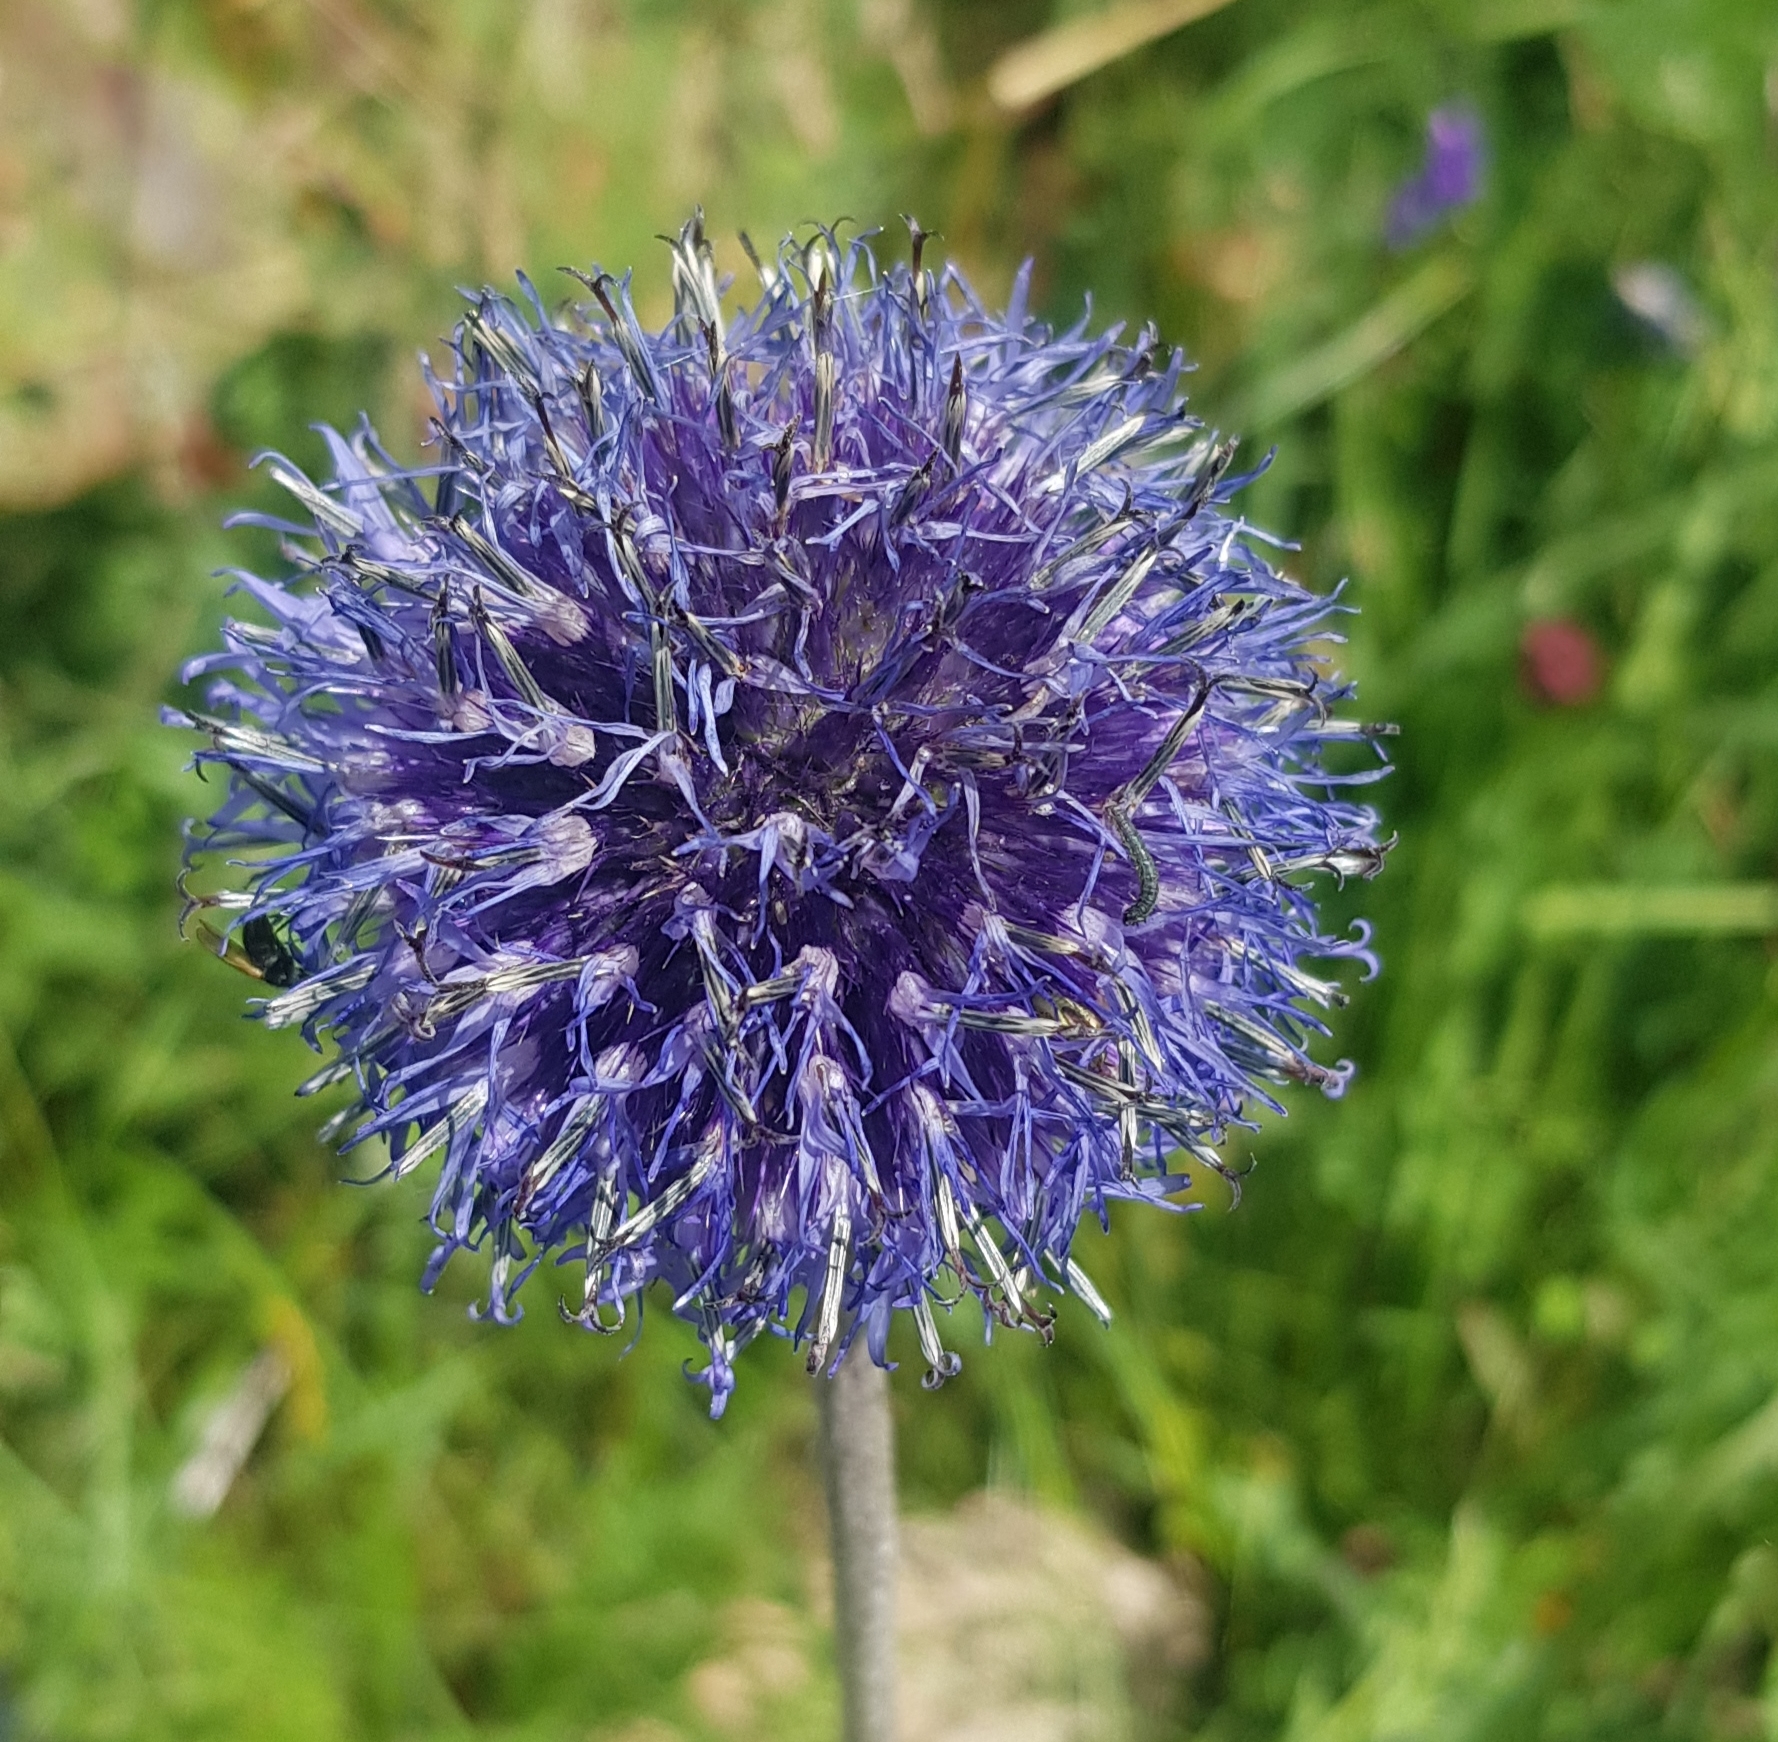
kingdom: Plantae
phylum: Tracheophyta
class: Magnoliopsida
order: Asterales
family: Asteraceae
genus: Echinops
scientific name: Echinops davuricus
